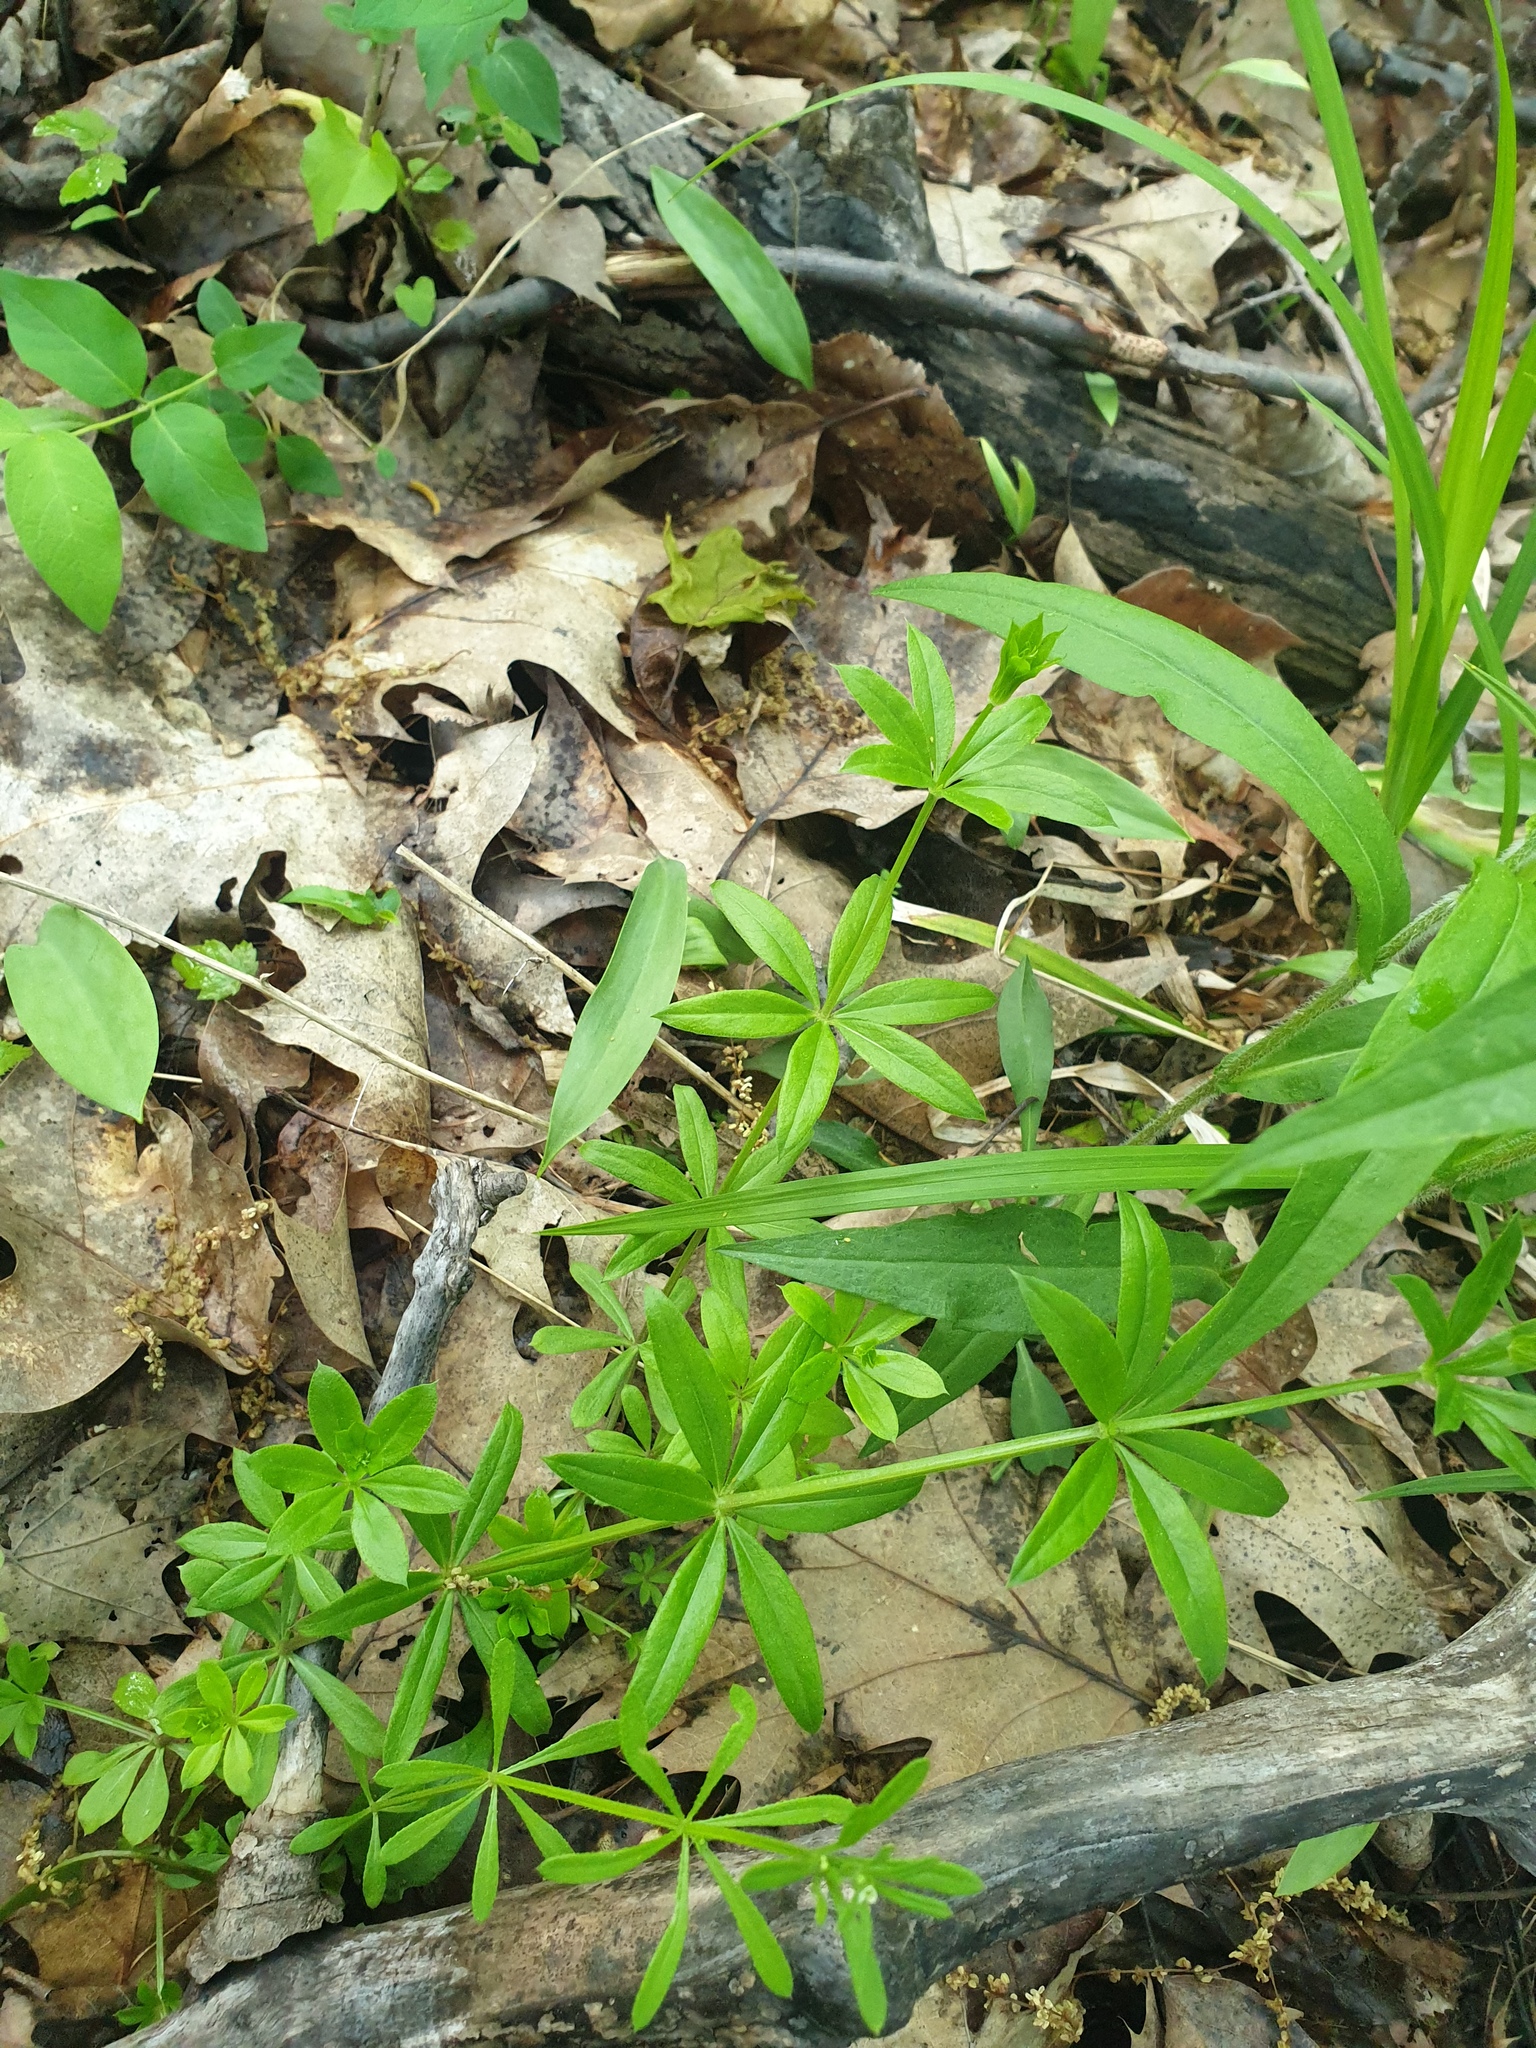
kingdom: Plantae
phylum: Tracheophyta
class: Liliopsida
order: Liliales
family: Liliaceae
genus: Erythronium
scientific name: Erythronium americanum
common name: Yellow adder's-tongue
